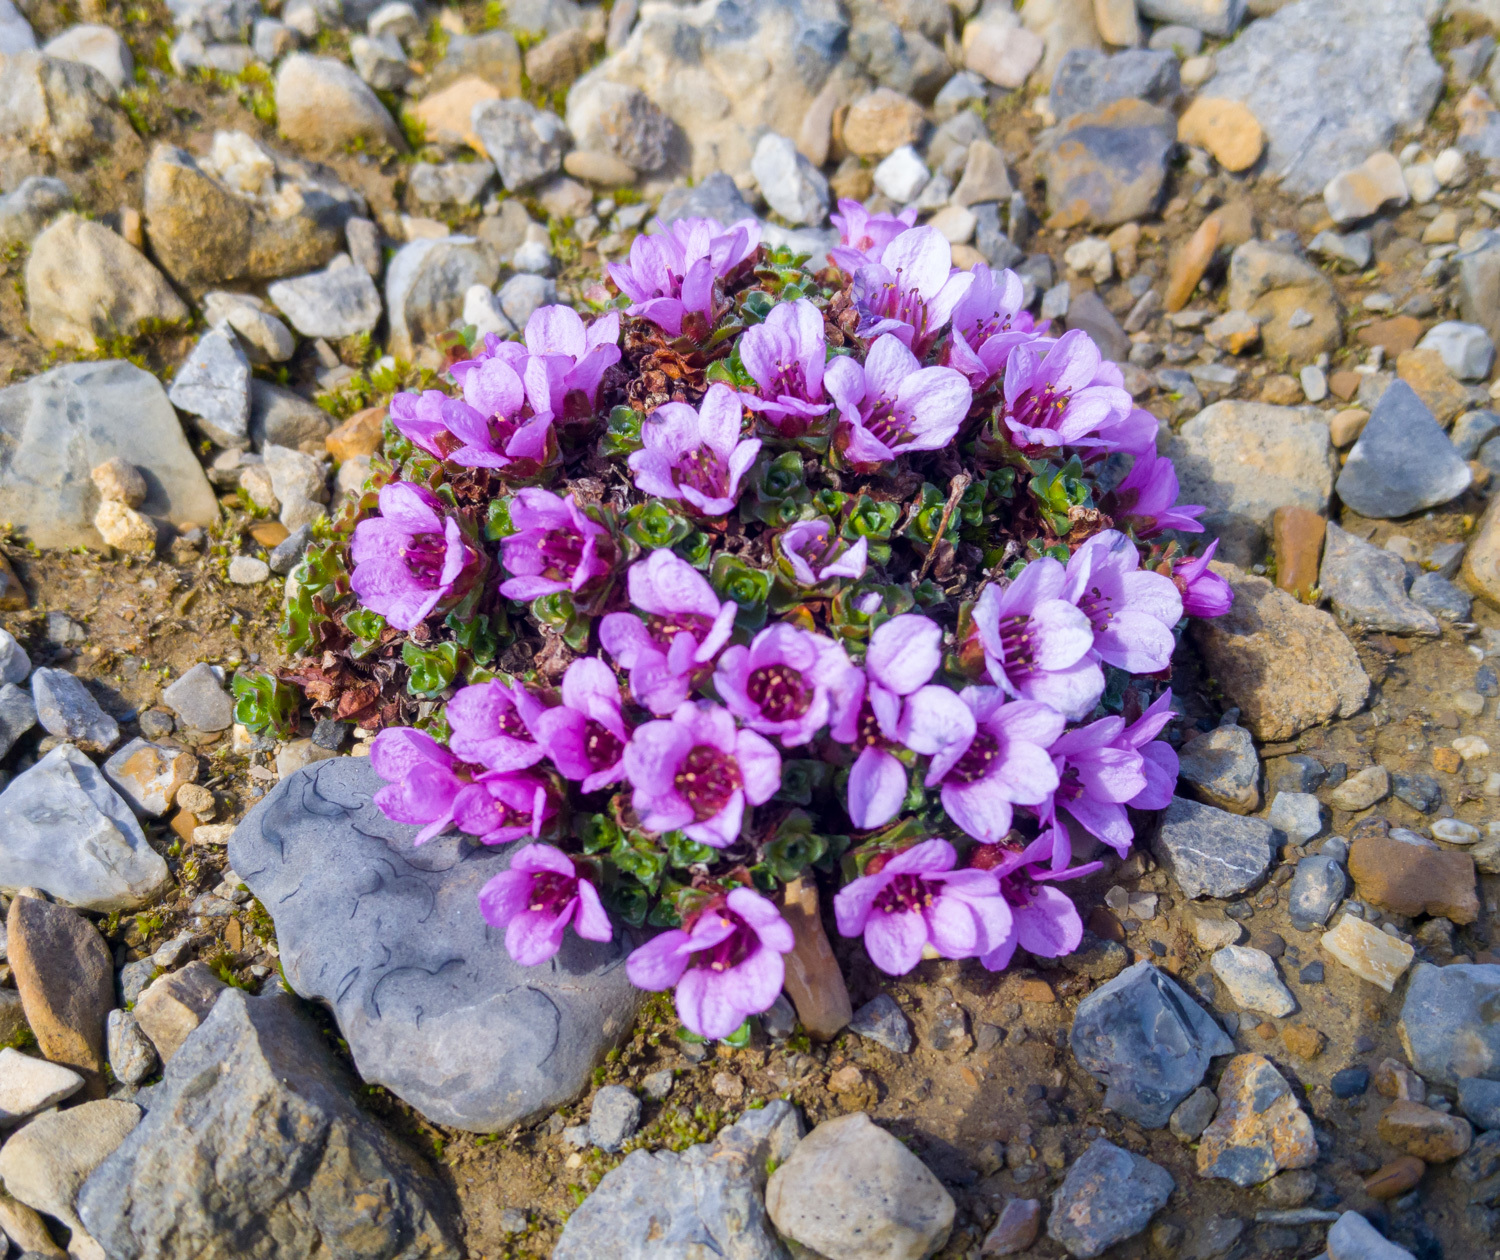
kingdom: Plantae
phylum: Tracheophyta
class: Magnoliopsida
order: Saxifragales
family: Saxifragaceae
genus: Saxifraga
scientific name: Saxifraga oppositifolia
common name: Purple saxifrage
